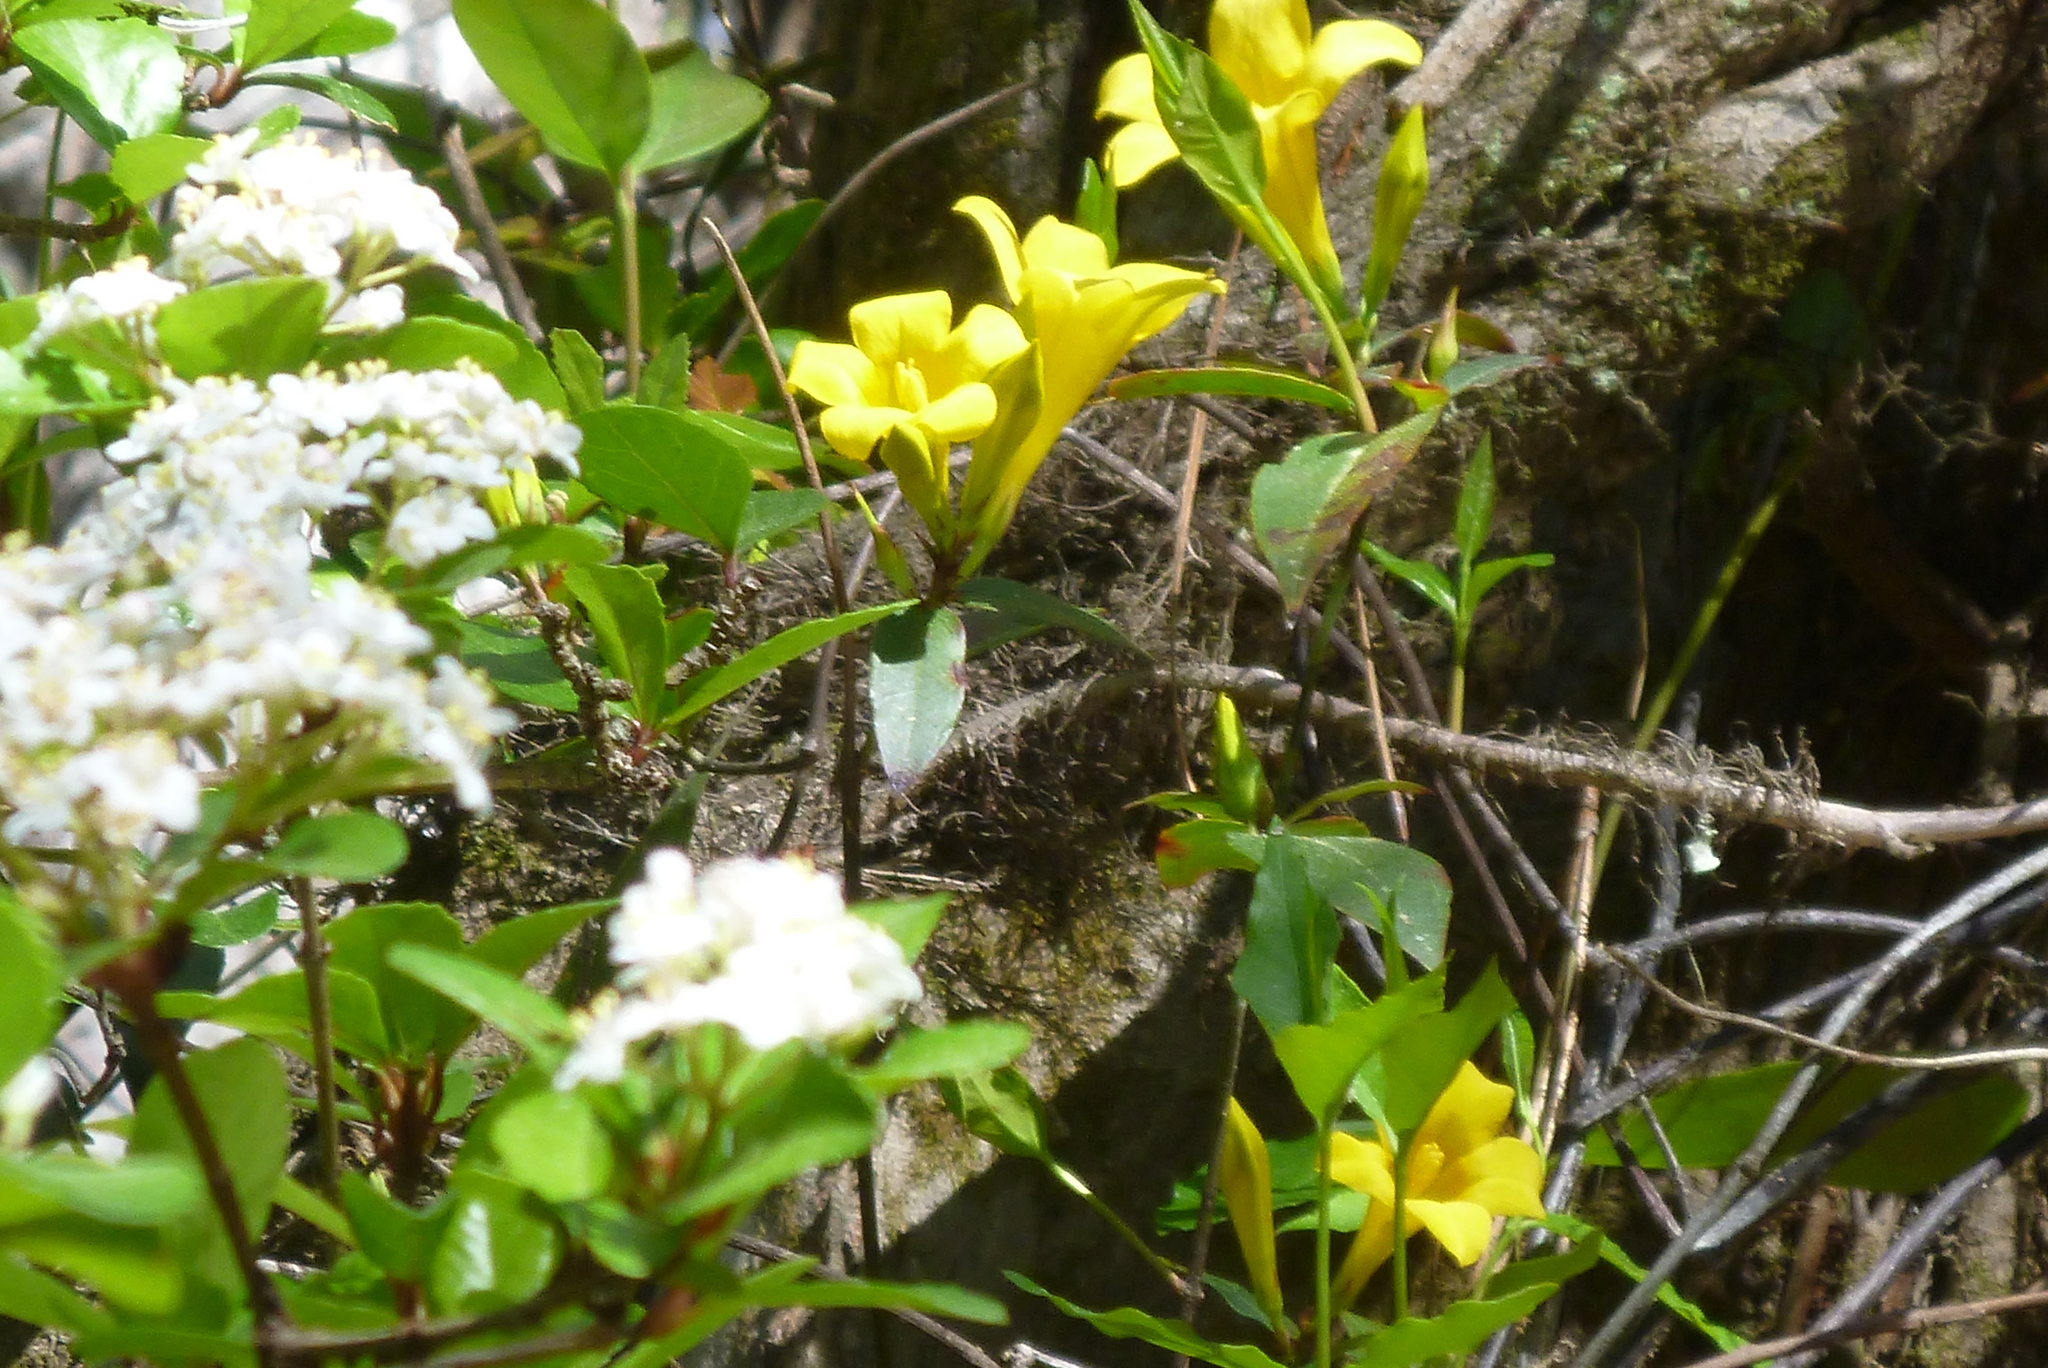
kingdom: Plantae
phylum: Tracheophyta
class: Magnoliopsida
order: Gentianales
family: Gelsemiaceae
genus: Gelsemium
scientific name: Gelsemium sempervirens
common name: Carolina-jasmine
